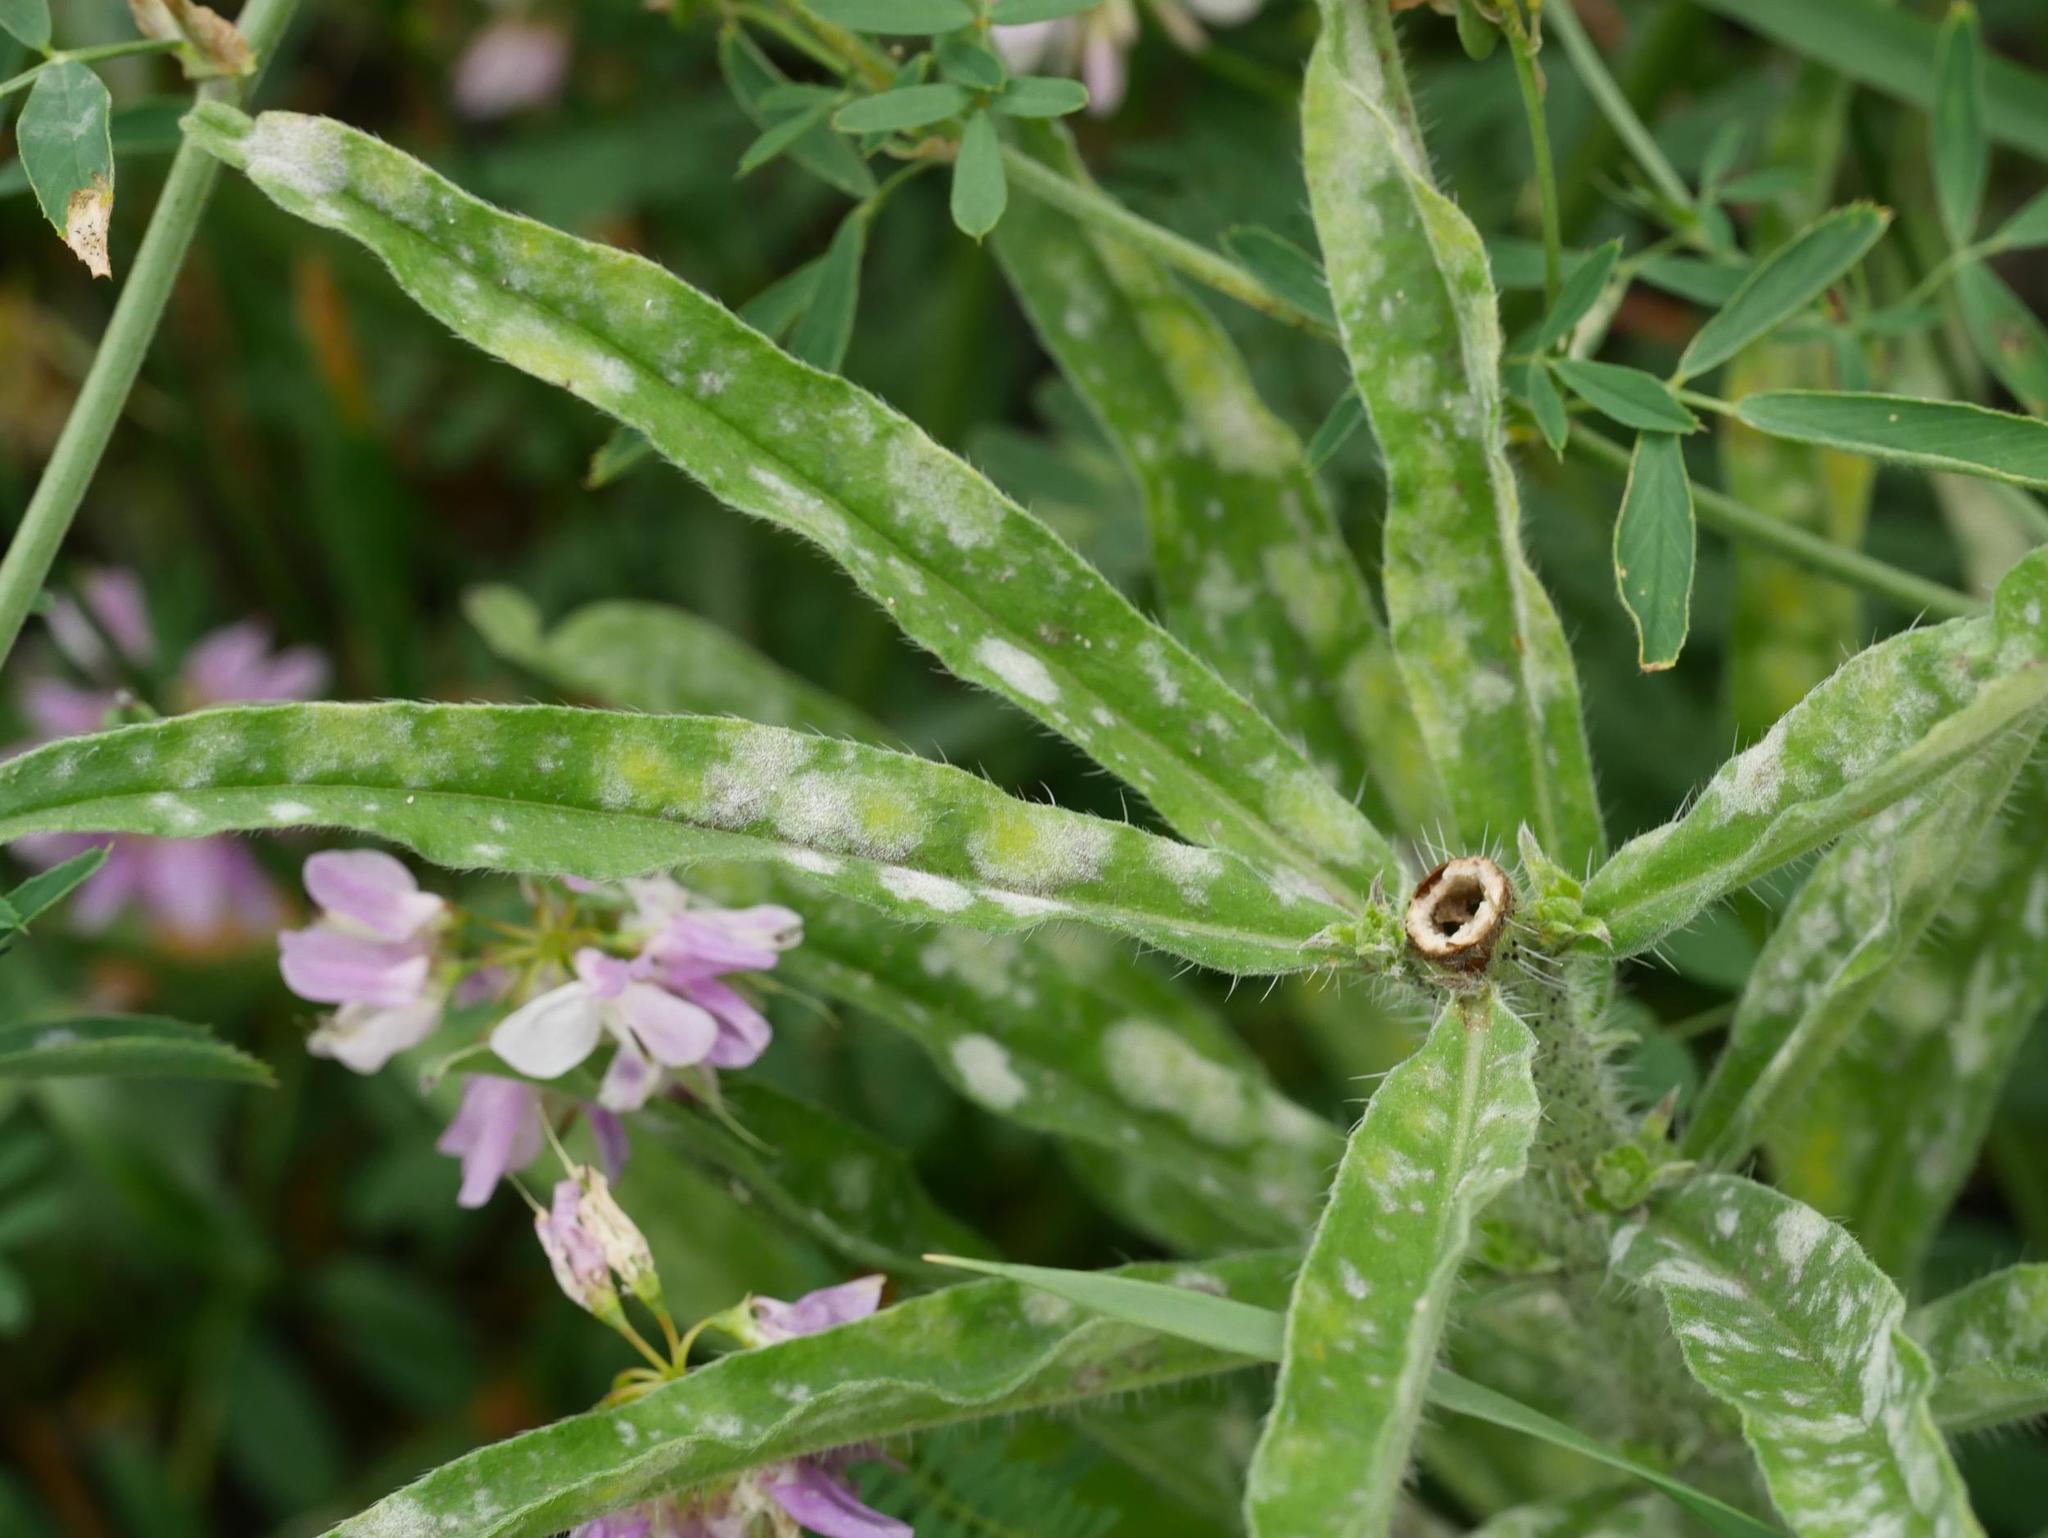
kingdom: Fungi
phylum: Ascomycota
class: Leotiomycetes
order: Helotiales
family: Erysiphaceae
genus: Golovinomyces
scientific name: Golovinomyces asperifolii
